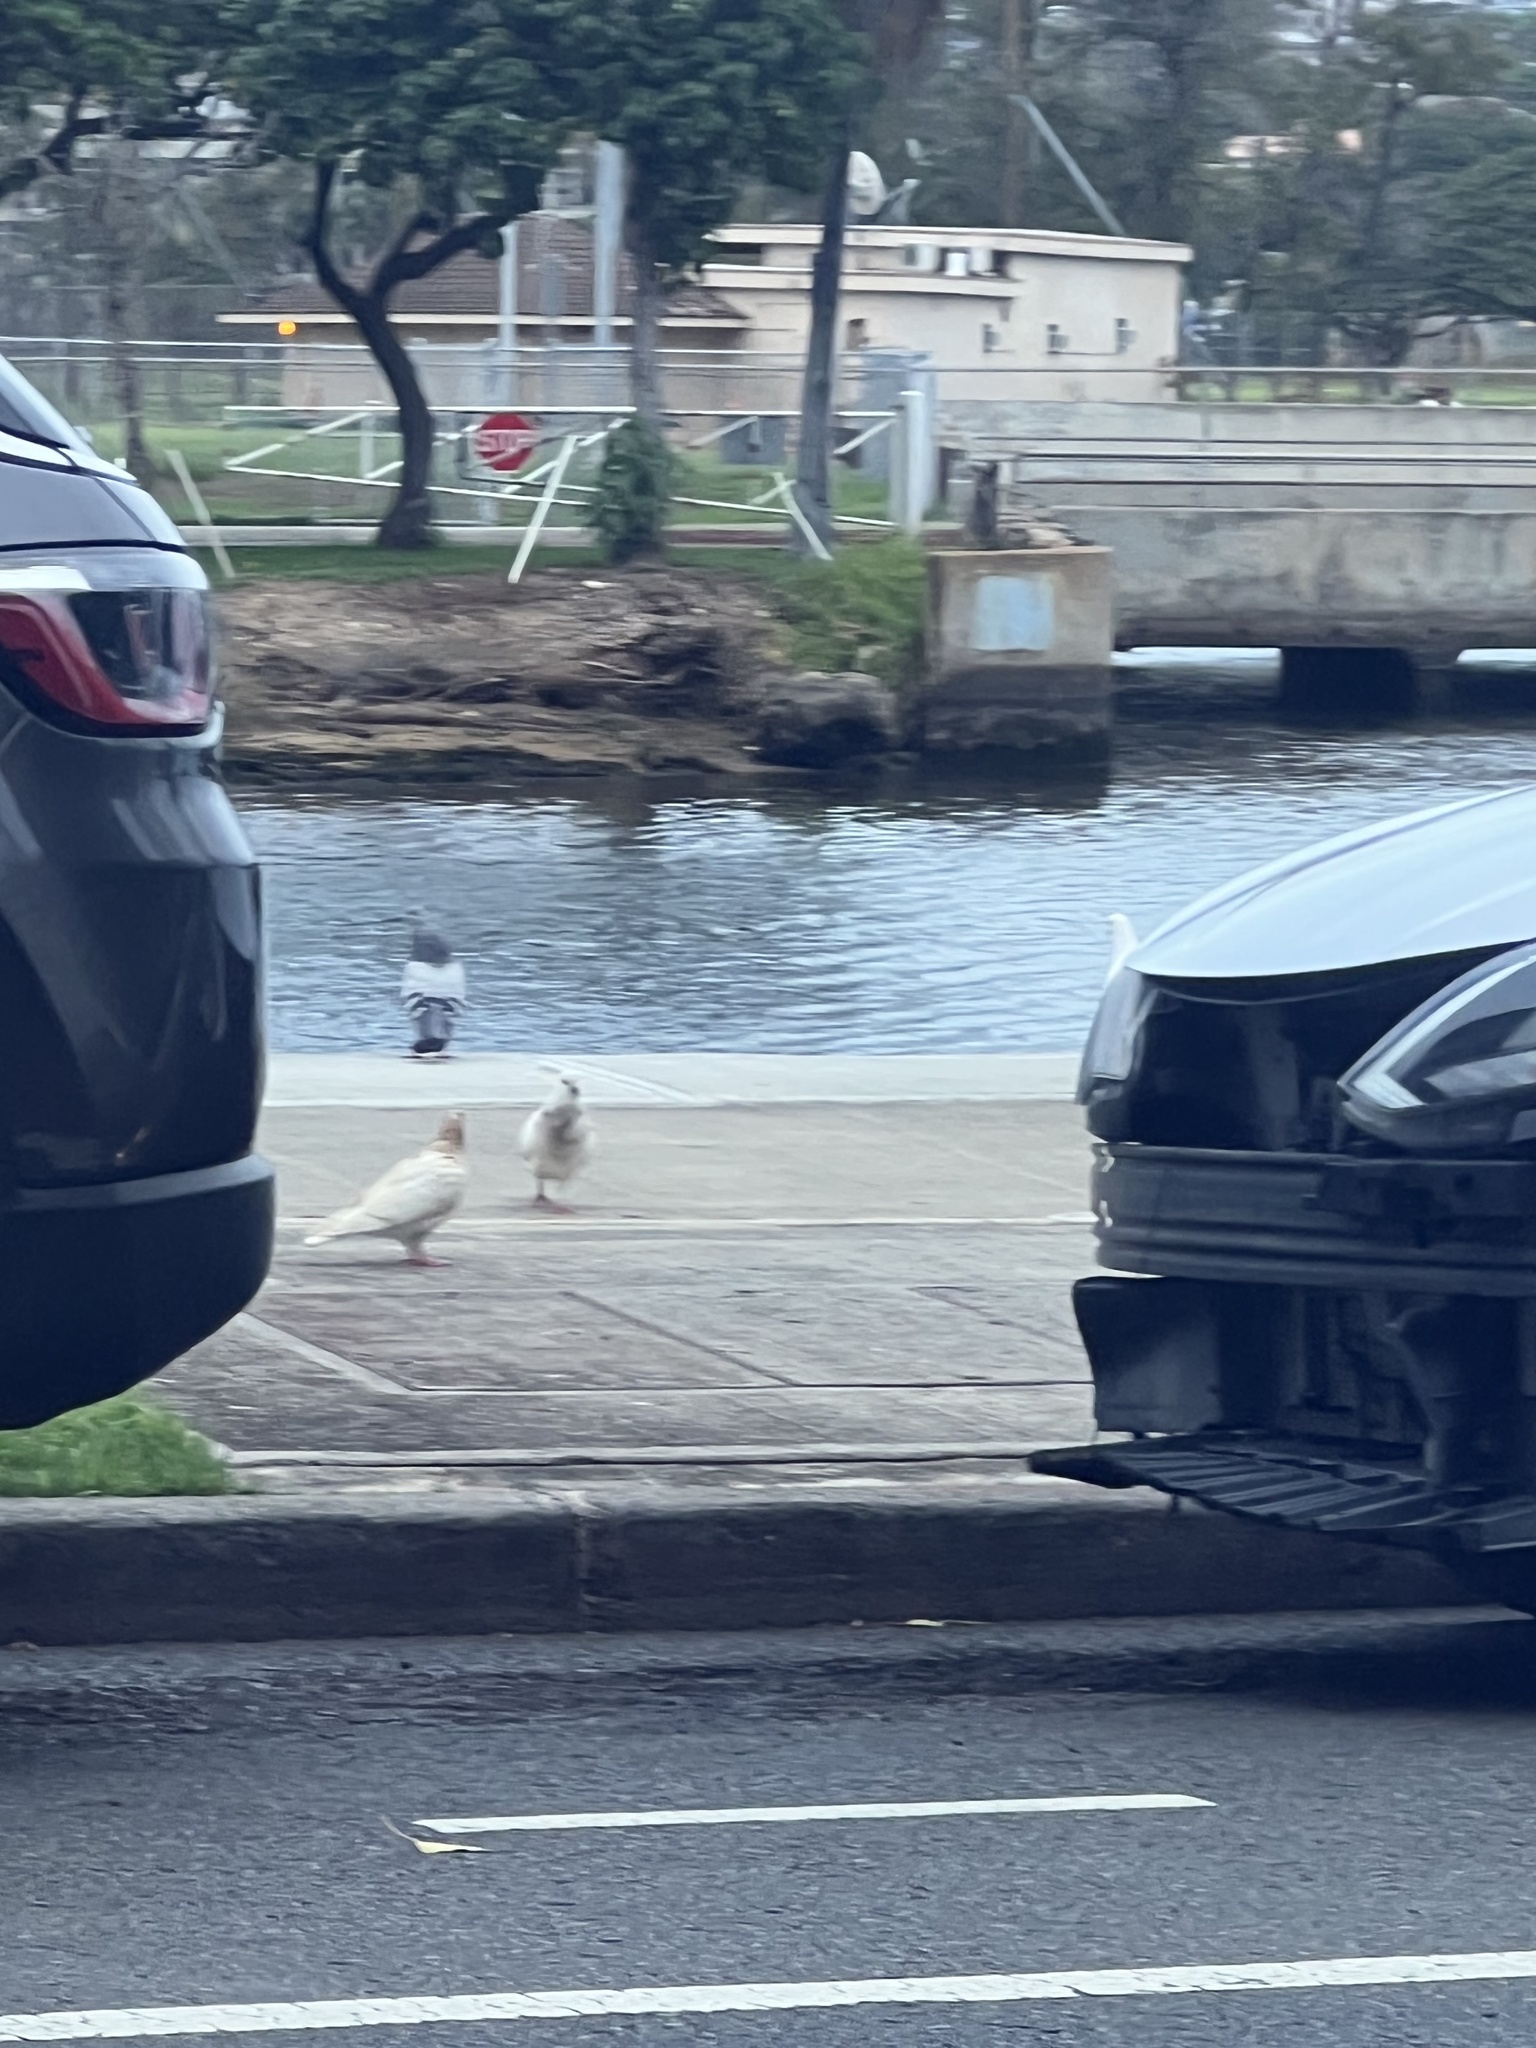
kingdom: Animalia
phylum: Chordata
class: Aves
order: Columbiformes
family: Columbidae
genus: Columba
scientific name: Columba livia
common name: Rock pigeon
